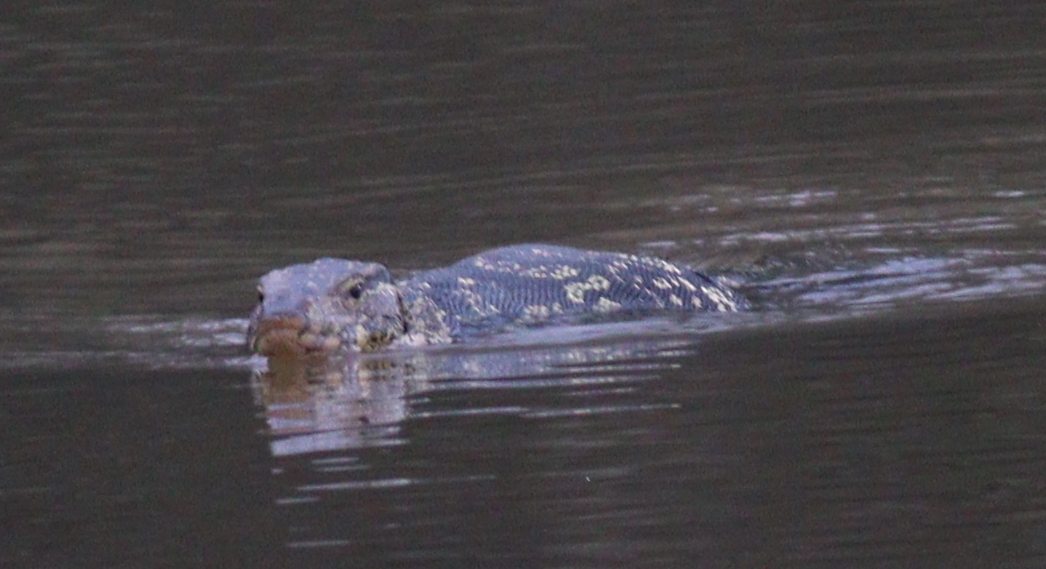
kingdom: Animalia
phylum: Chordata
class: Squamata
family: Varanidae
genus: Varanus
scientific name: Varanus salvator
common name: Common water monitor
